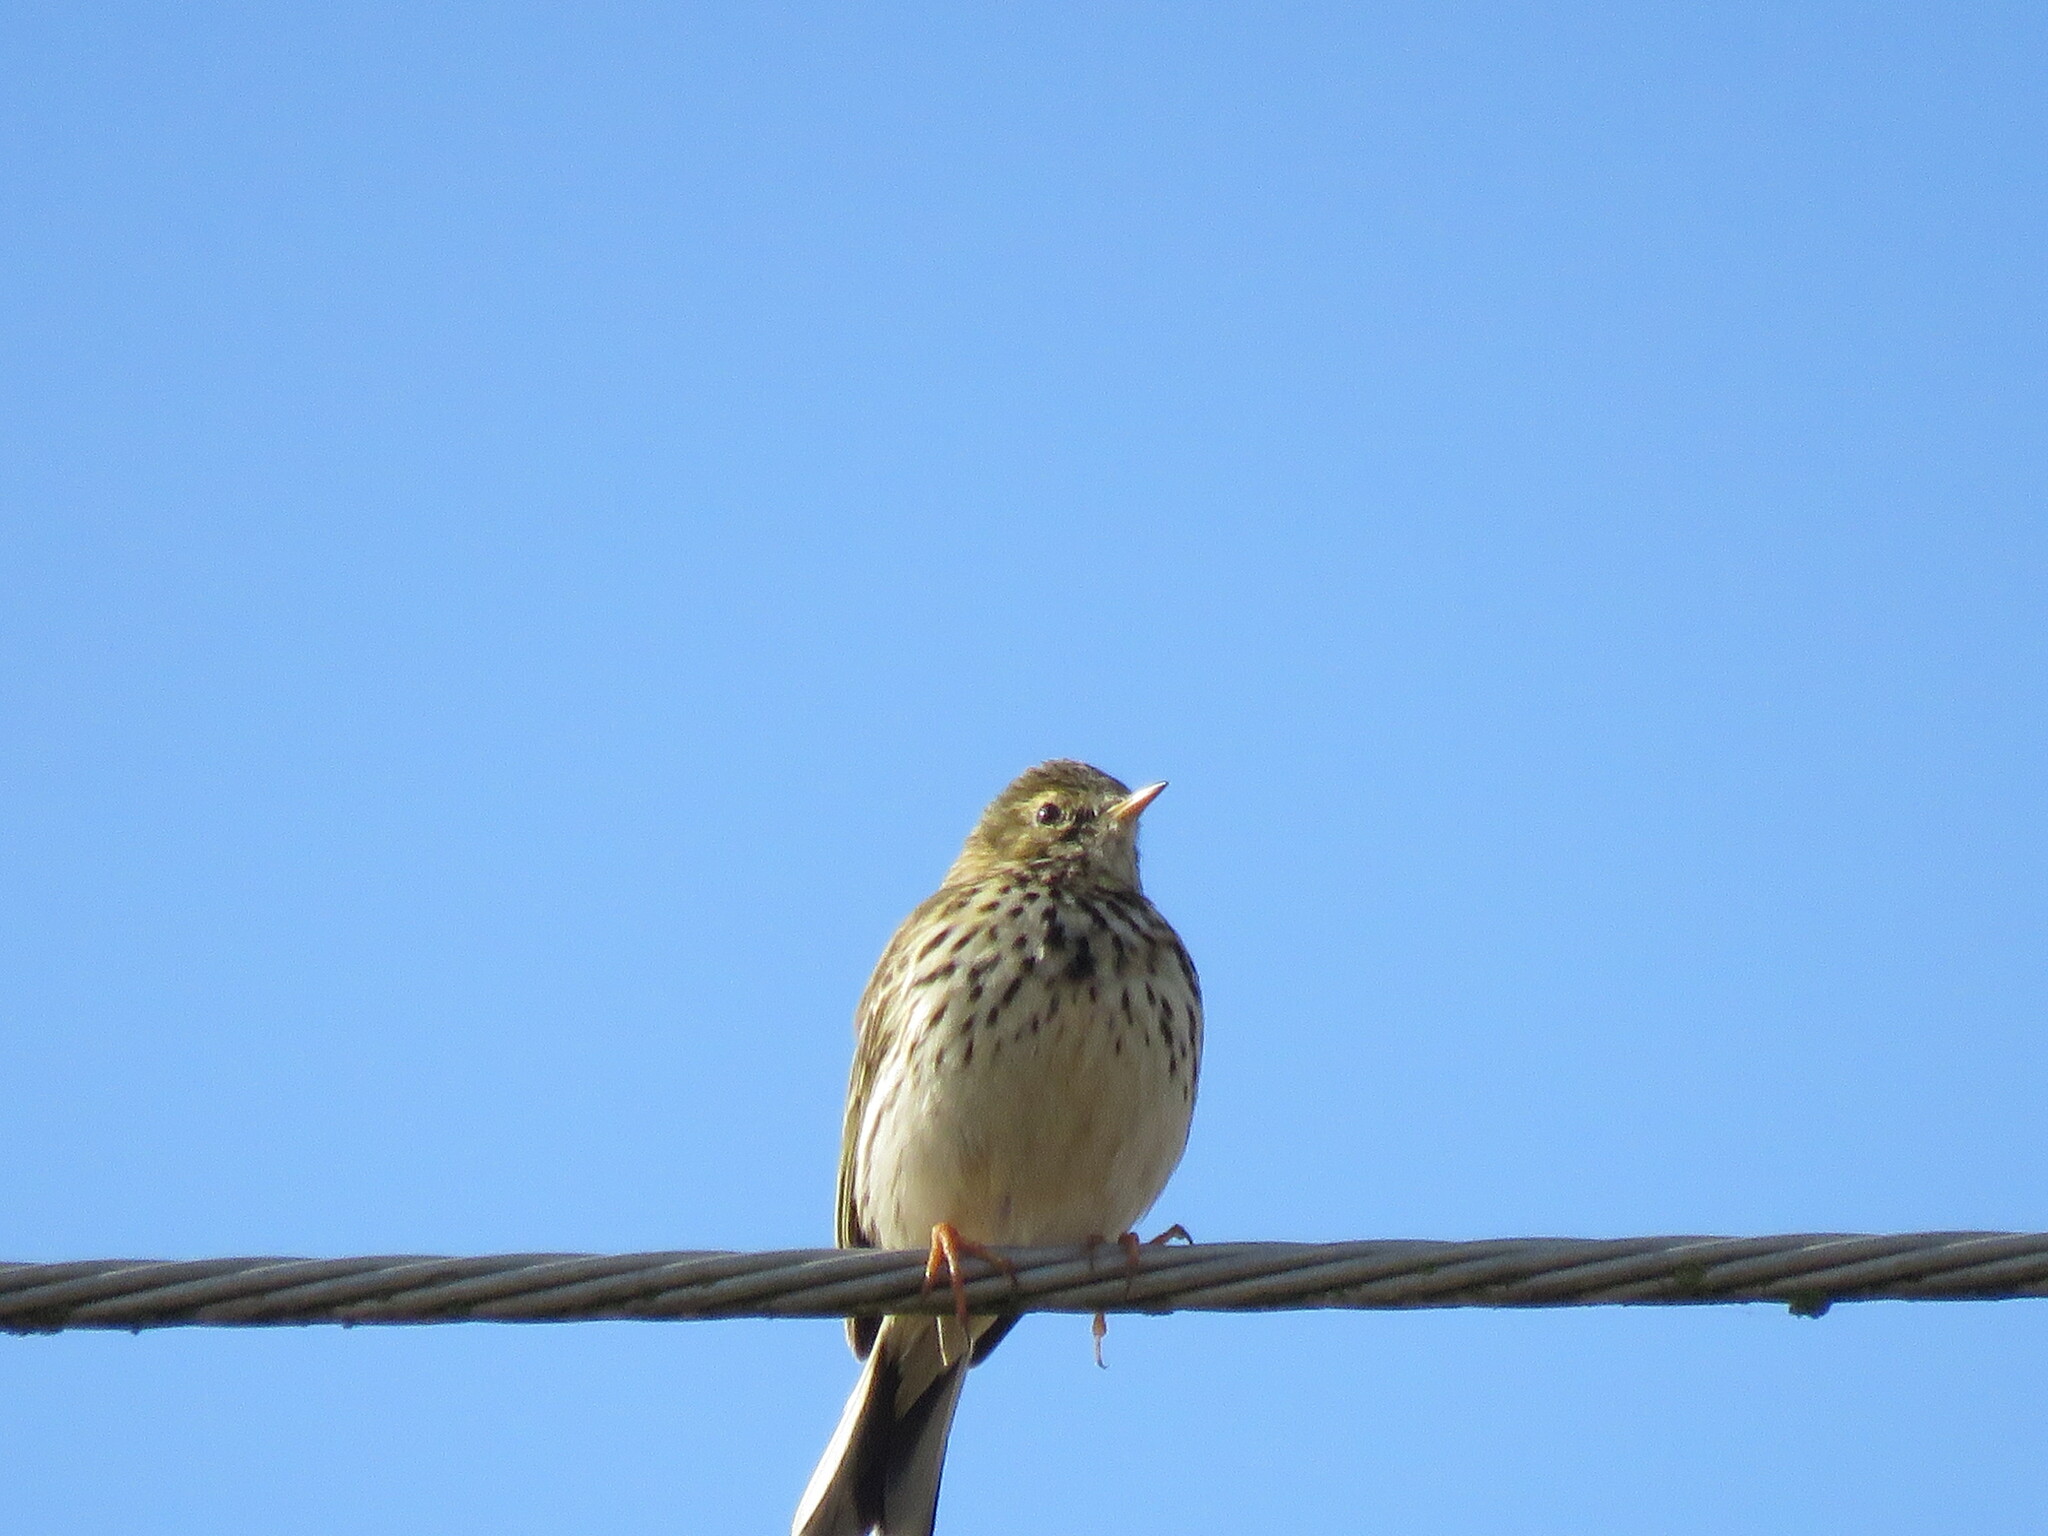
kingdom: Animalia
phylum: Chordata
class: Aves
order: Passeriformes
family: Motacillidae
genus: Anthus
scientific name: Anthus pratensis
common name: Meadow pipit
